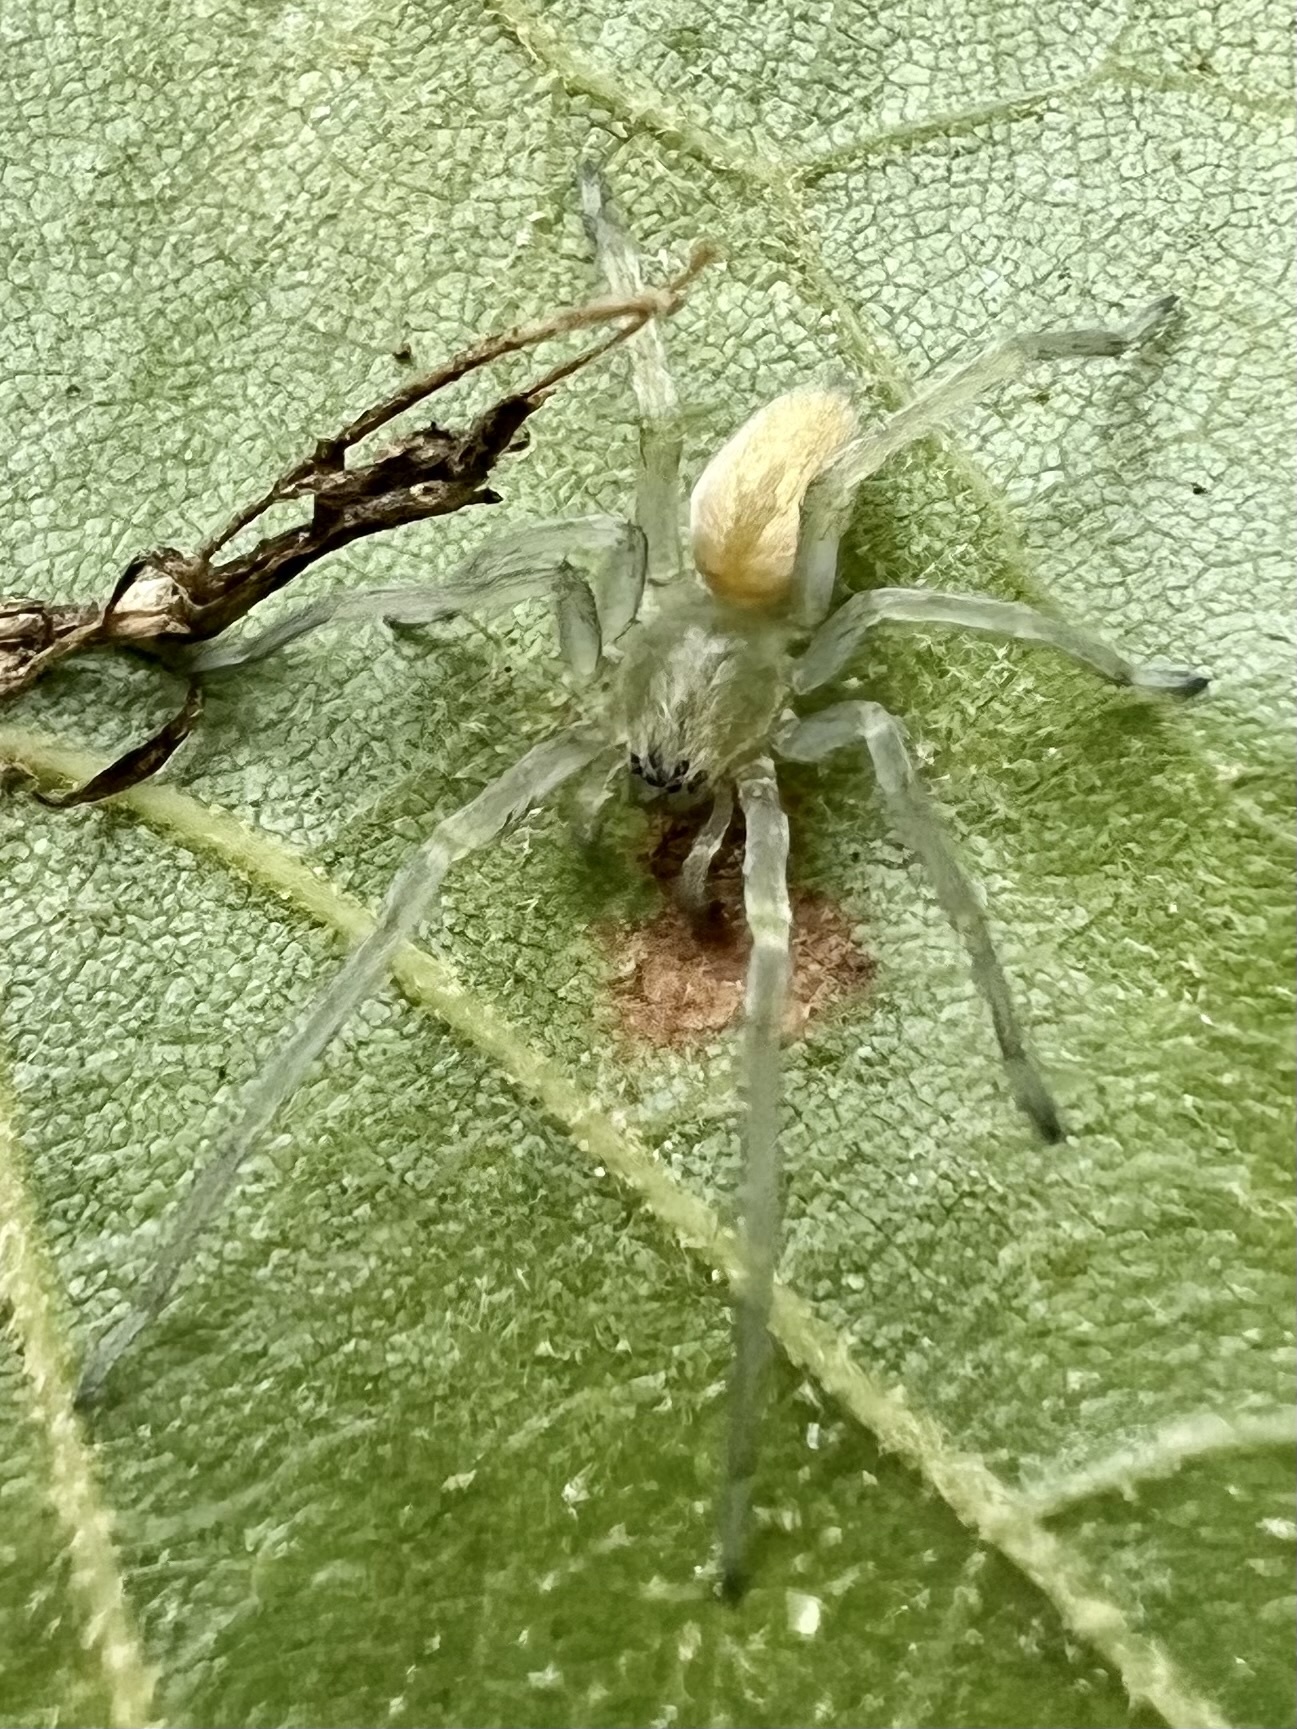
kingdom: Animalia
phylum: Arthropoda
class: Arachnida
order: Araneae
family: Cheiracanthiidae
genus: Cheiracanthium
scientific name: Cheiracanthium mildei
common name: Northern yellow sac spider
